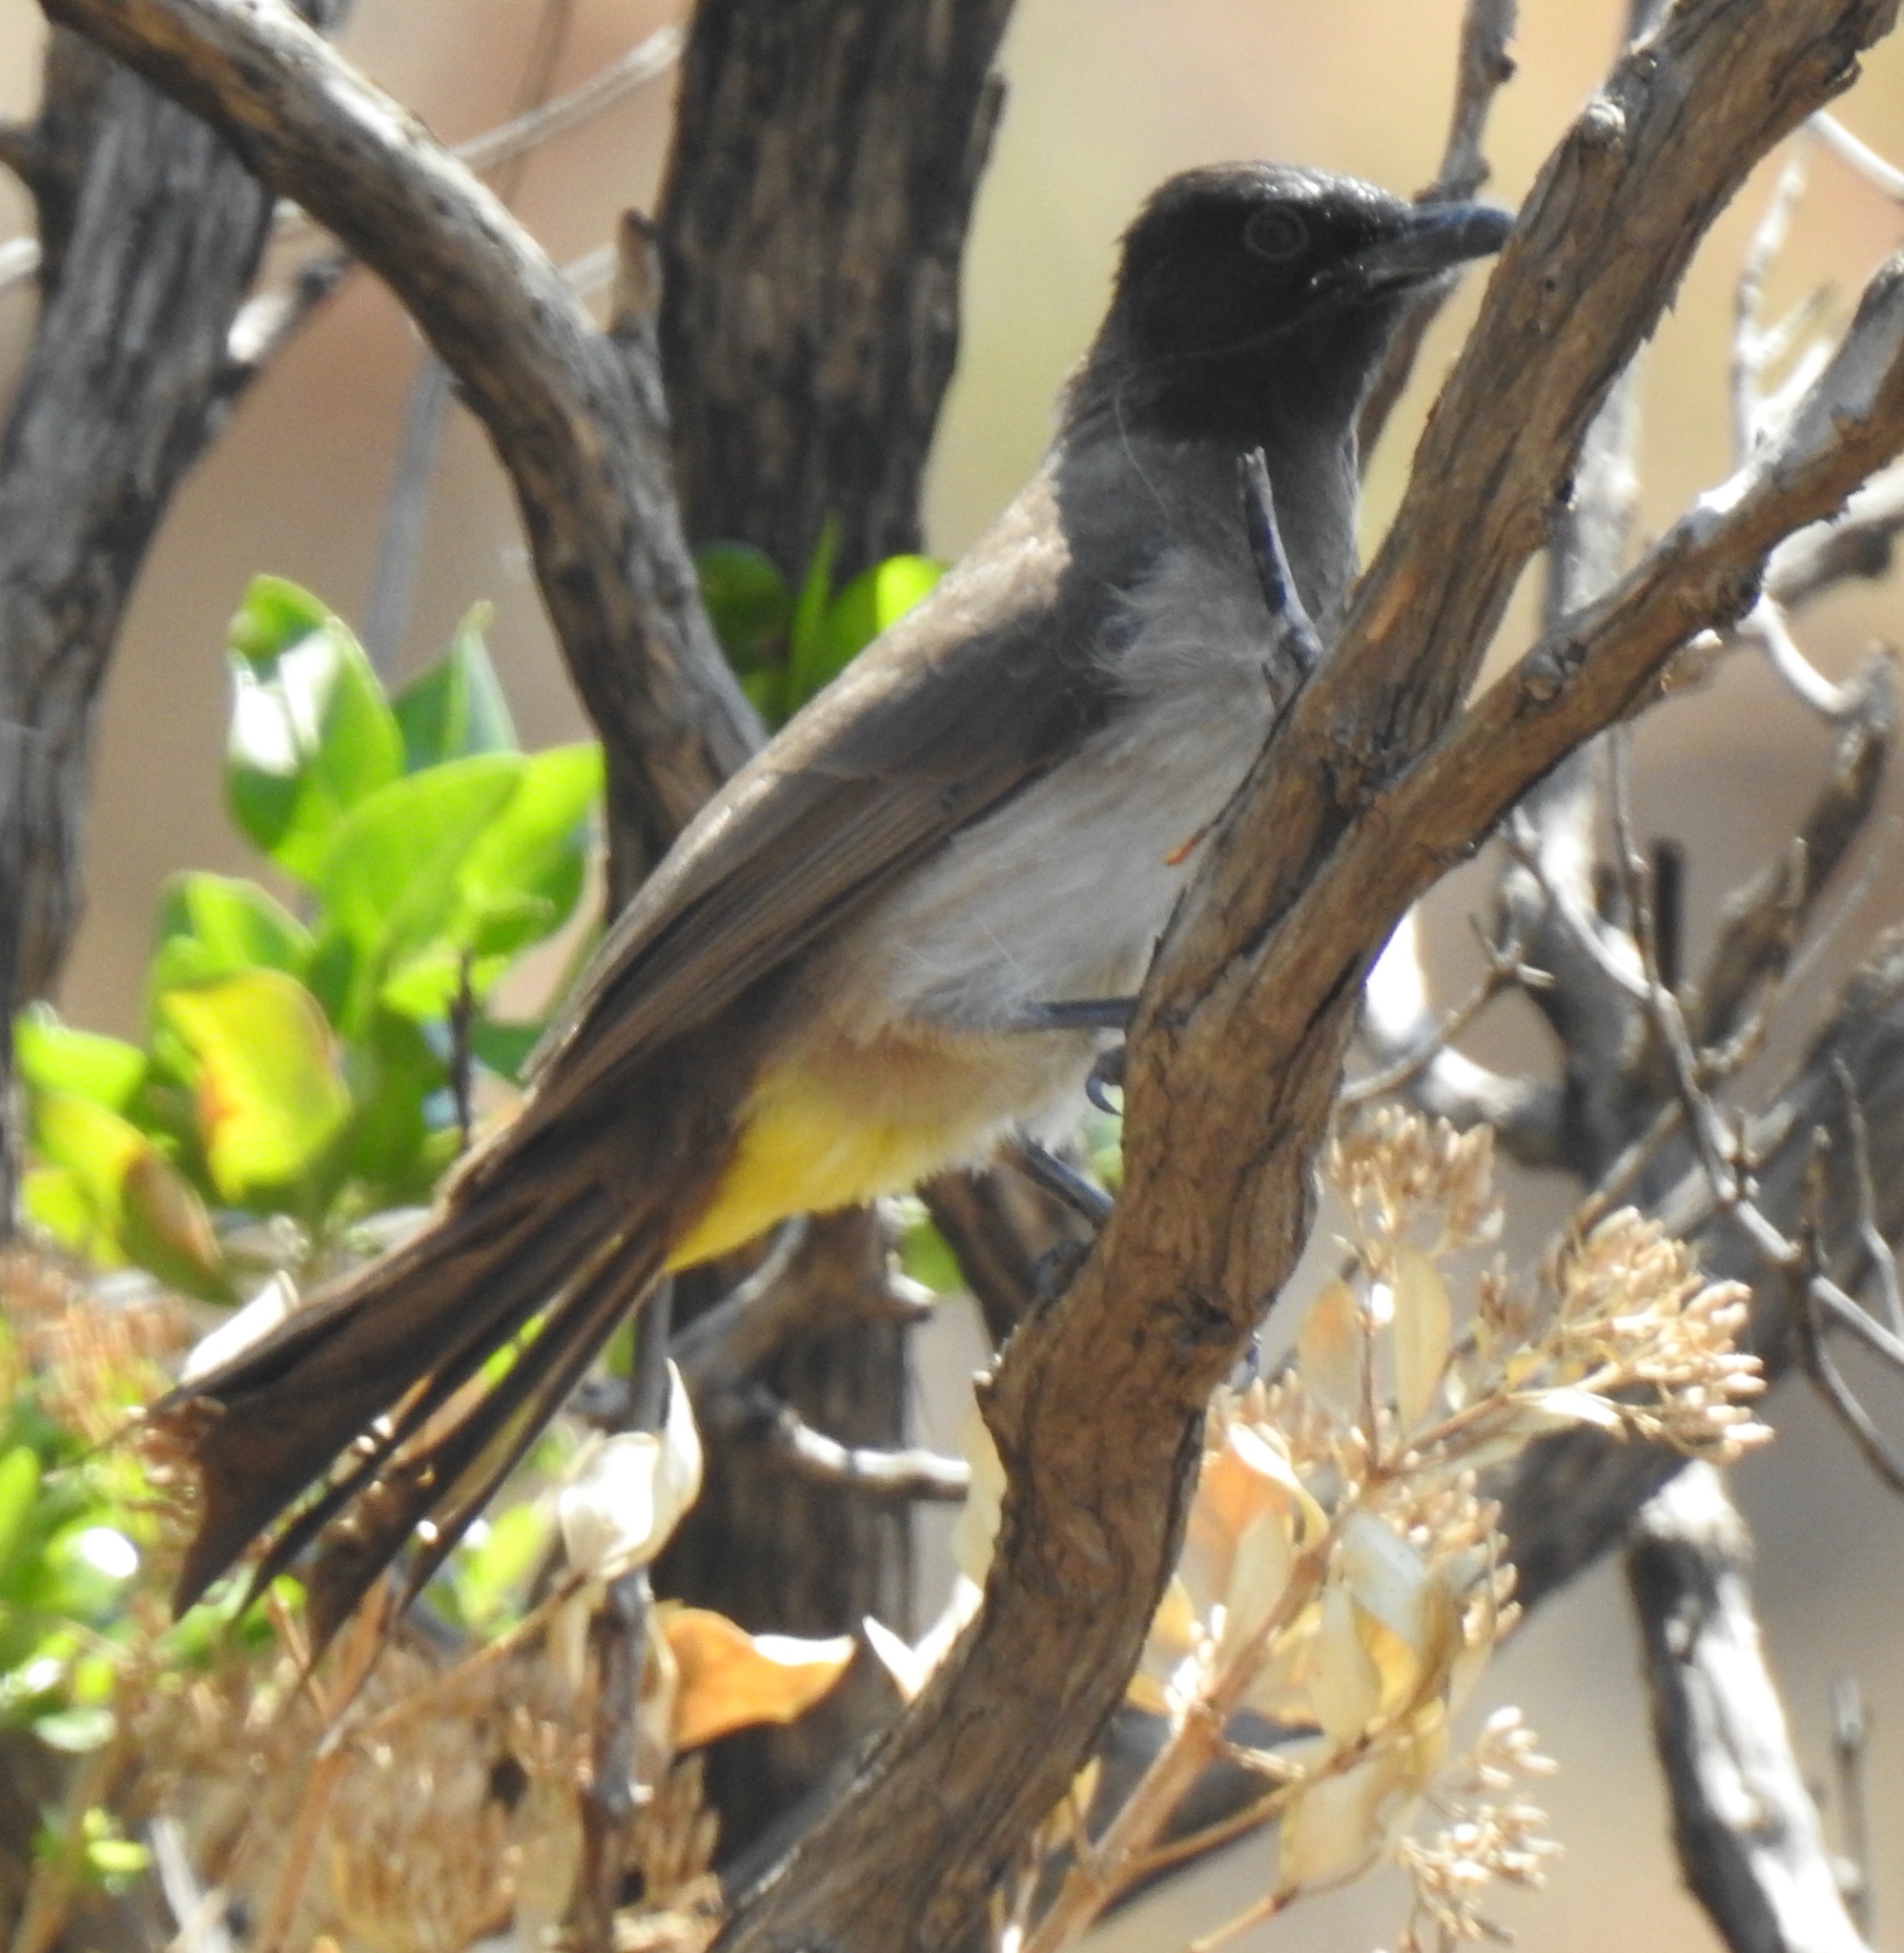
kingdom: Animalia
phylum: Chordata
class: Aves
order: Passeriformes
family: Pycnonotidae
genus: Pycnonotus
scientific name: Pycnonotus barbatus
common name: Common bulbul
